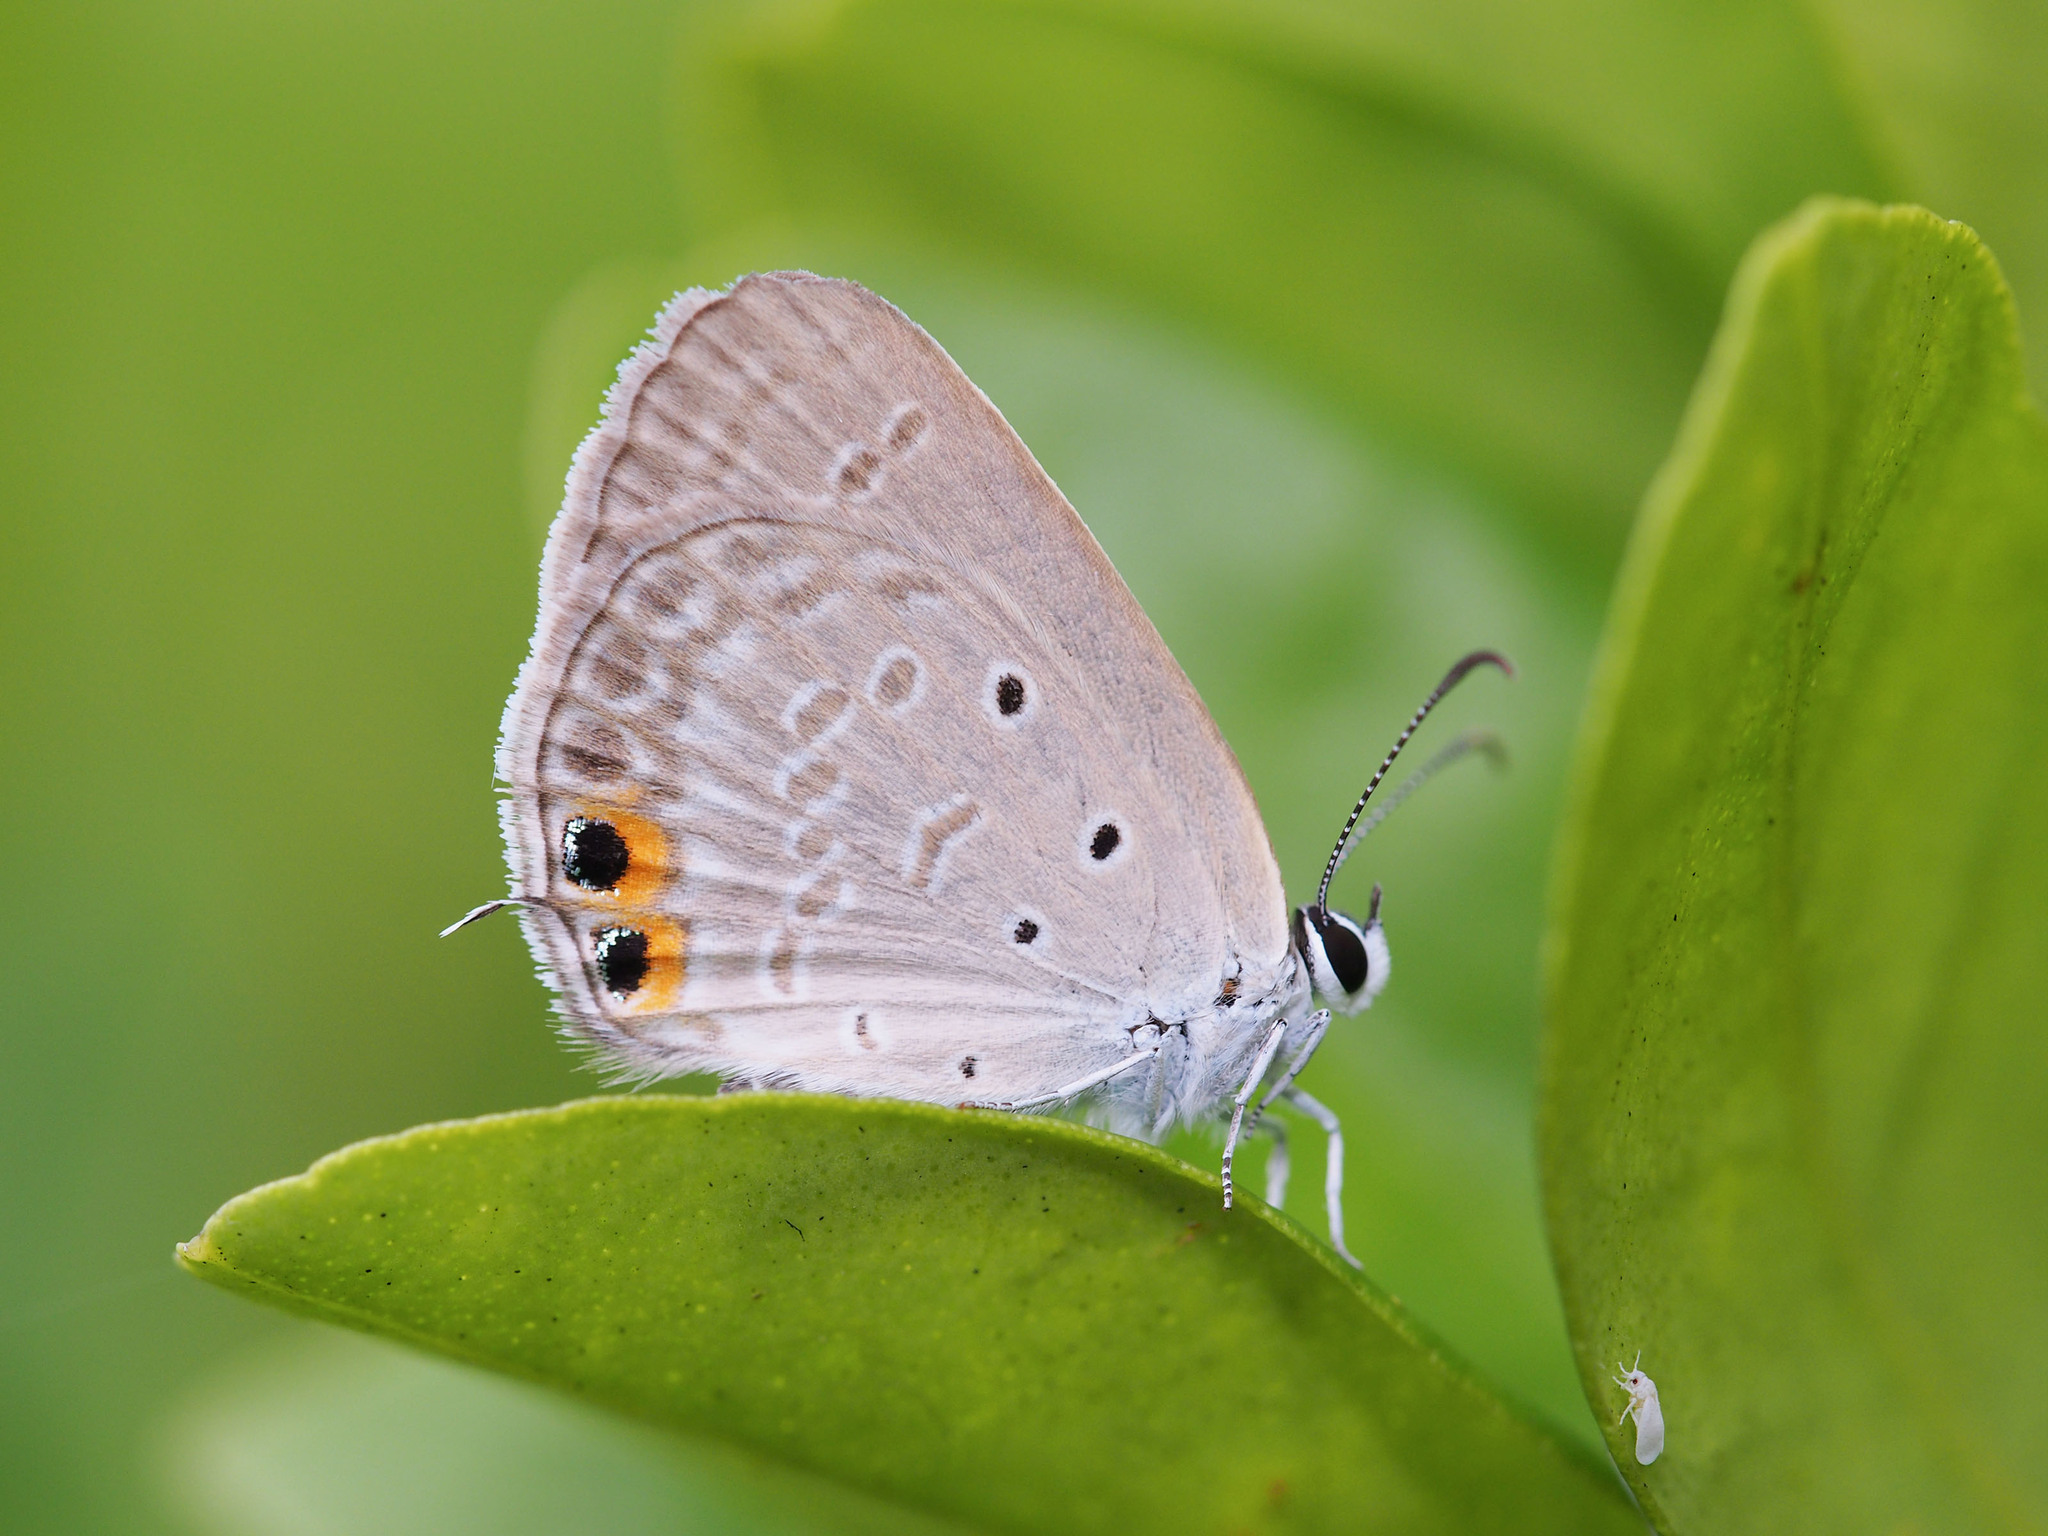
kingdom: Animalia
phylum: Arthropoda
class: Insecta
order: Lepidoptera
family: Lycaenidae
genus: Euchrysops
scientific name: Euchrysops cnejus
